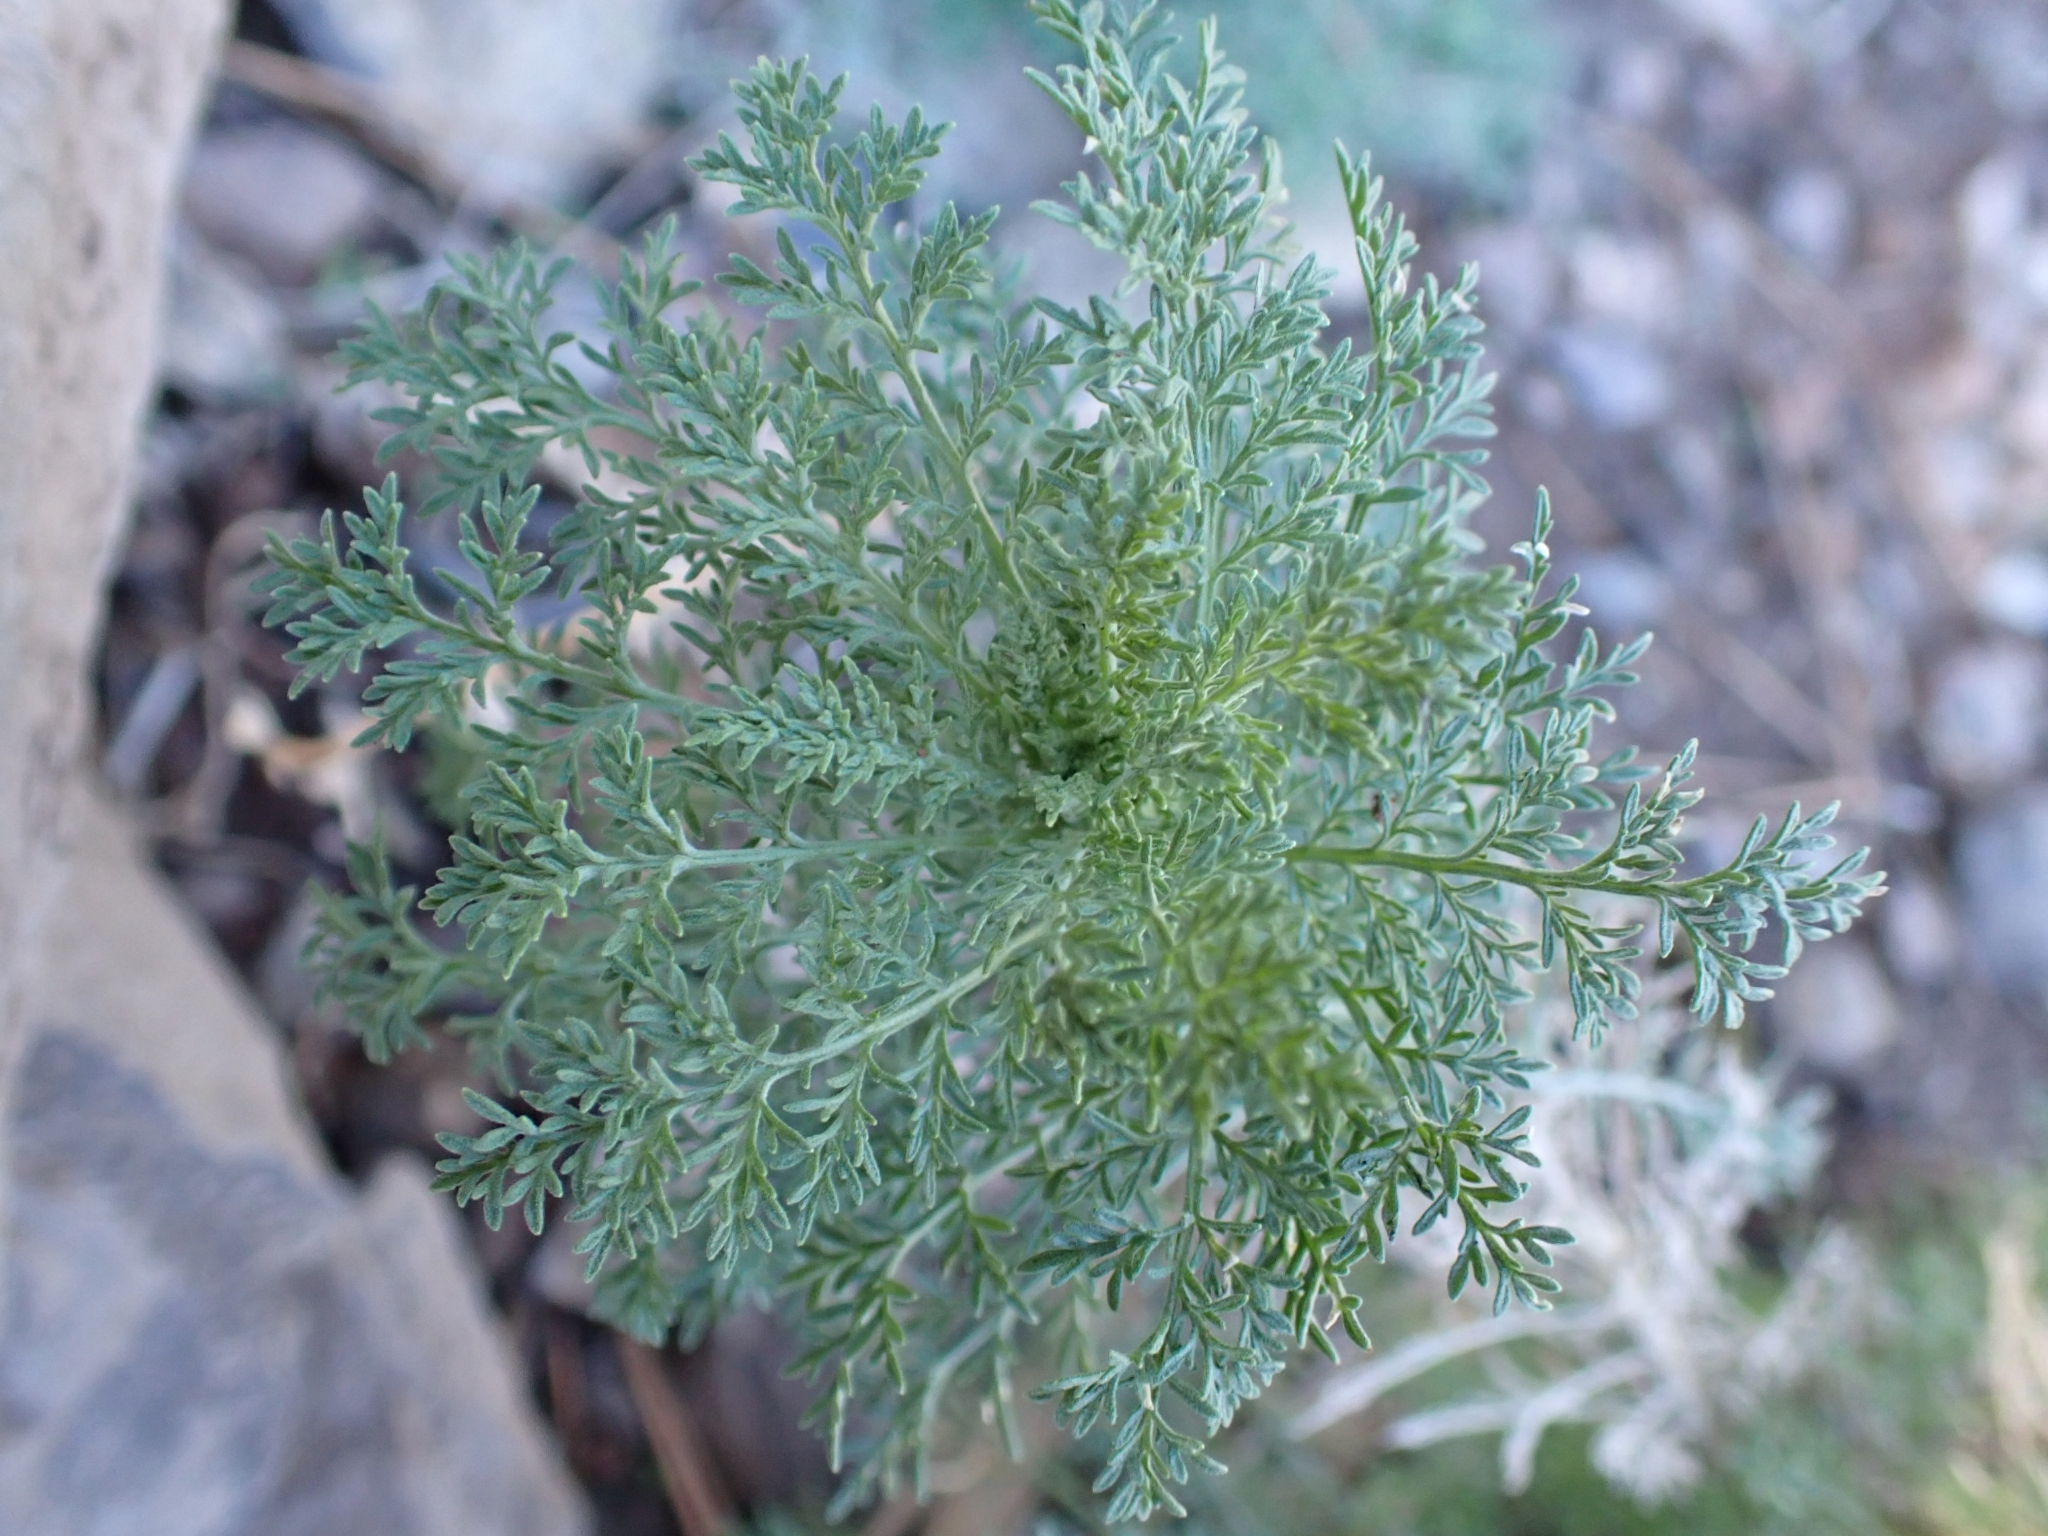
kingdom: Plantae
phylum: Tracheophyta
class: Magnoliopsida
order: Brassicales
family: Brassicaceae
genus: Descurainia
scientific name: Descurainia gilva
